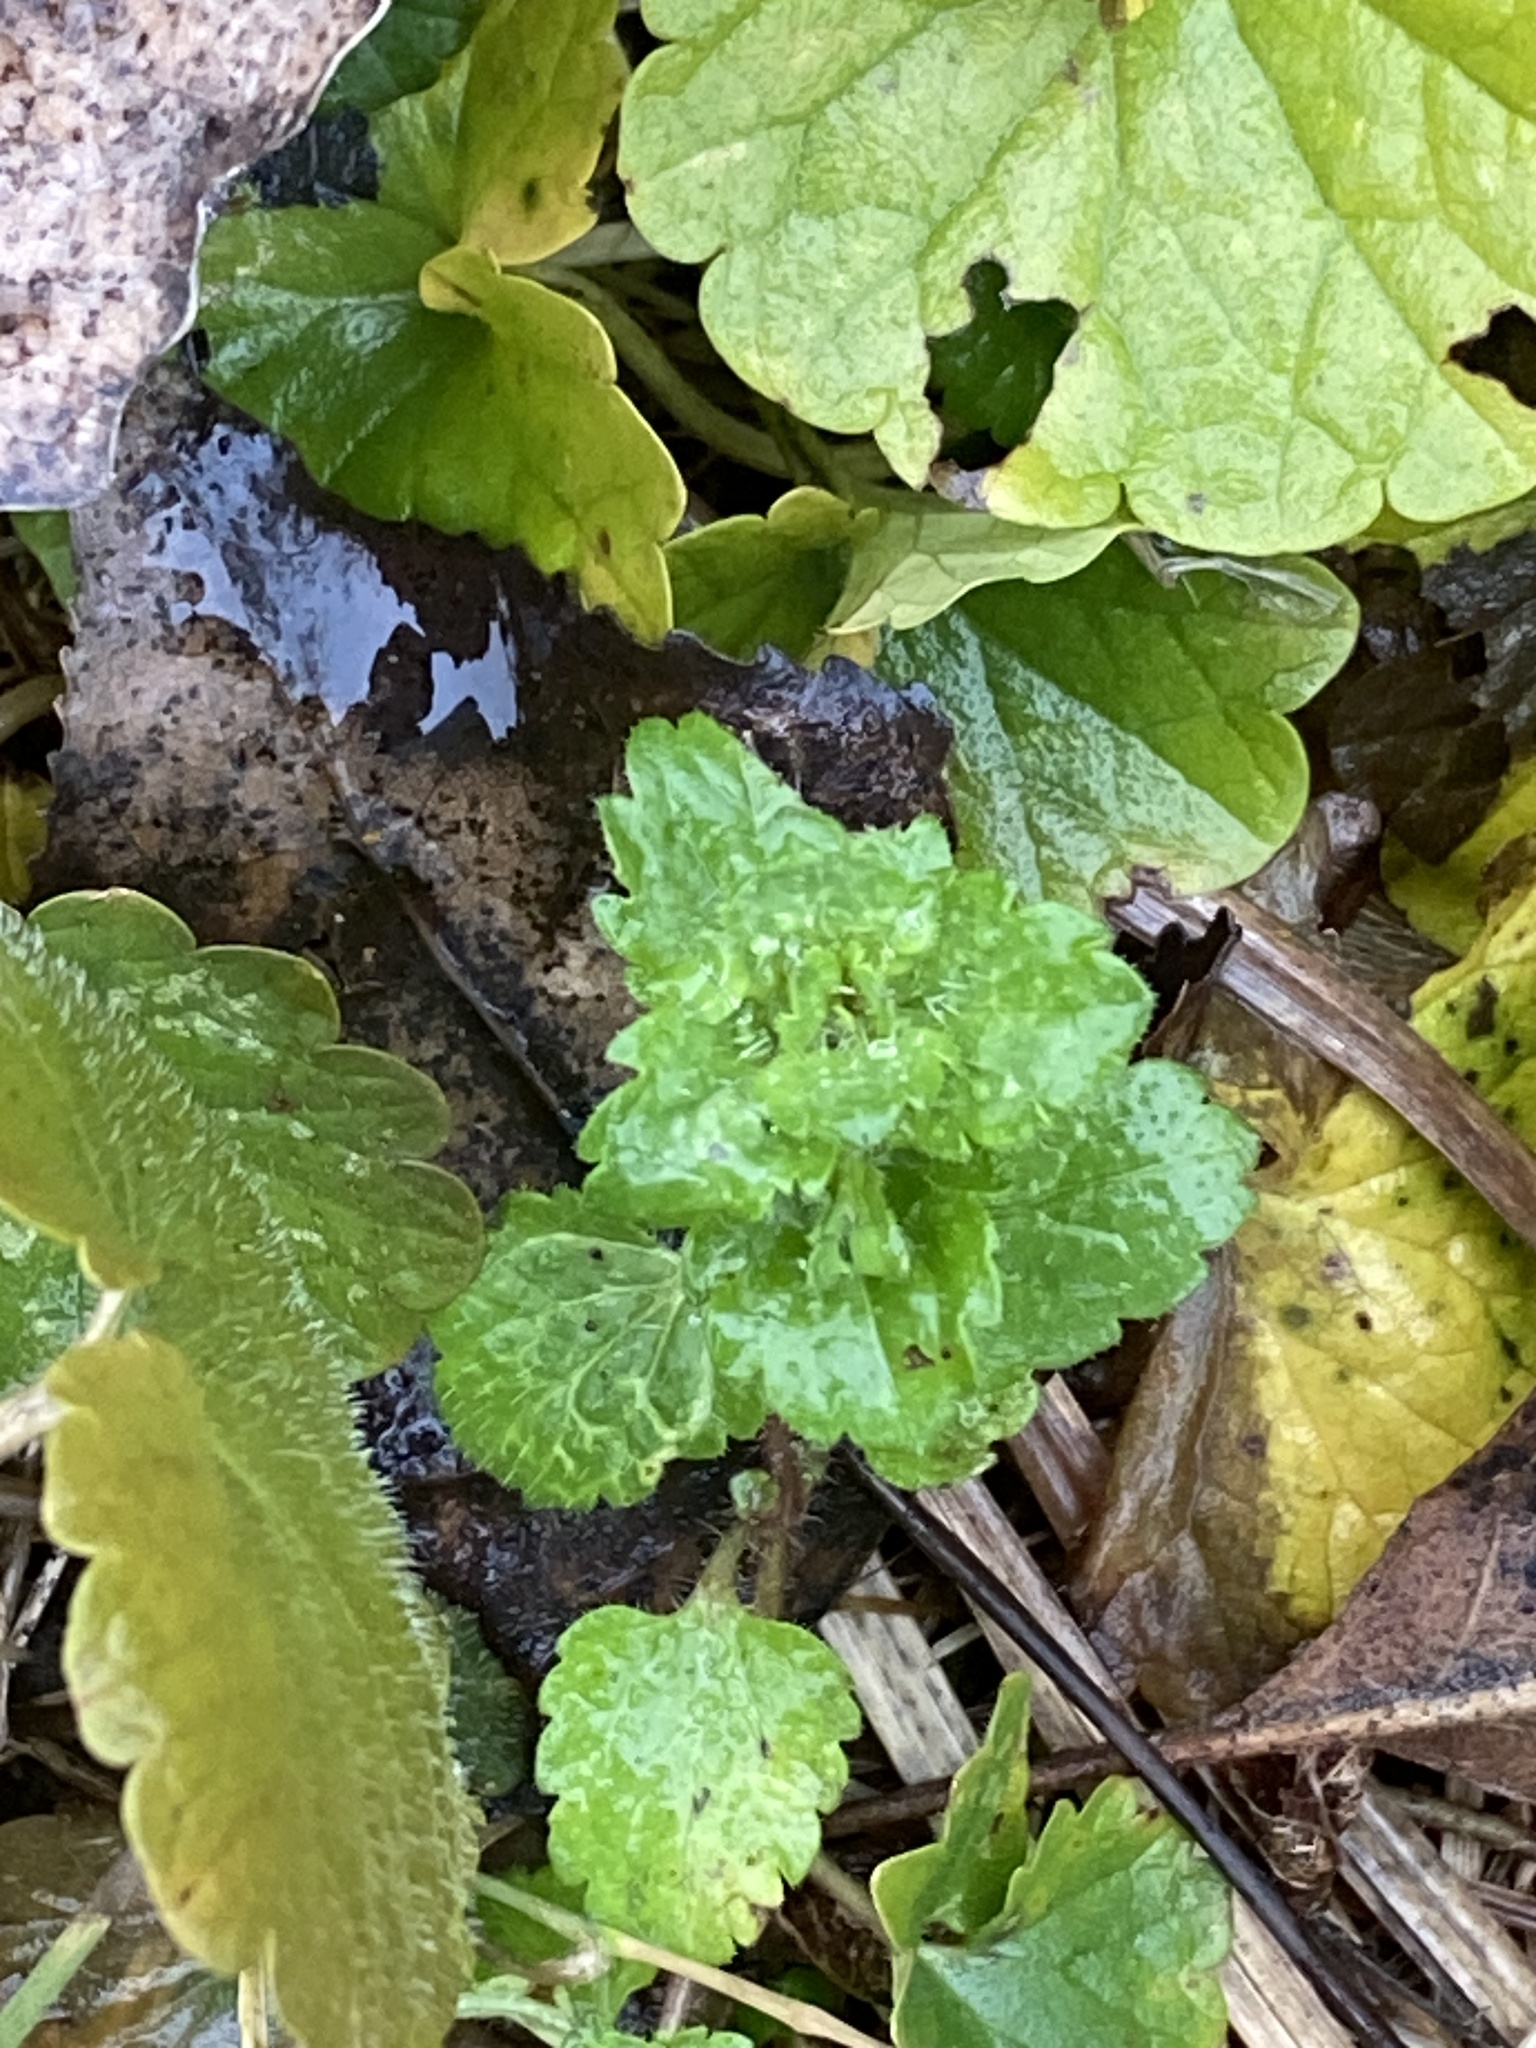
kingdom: Plantae
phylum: Tracheophyta
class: Magnoliopsida
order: Lamiales
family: Plantaginaceae
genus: Veronica
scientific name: Veronica persica
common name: Common field-speedwell
